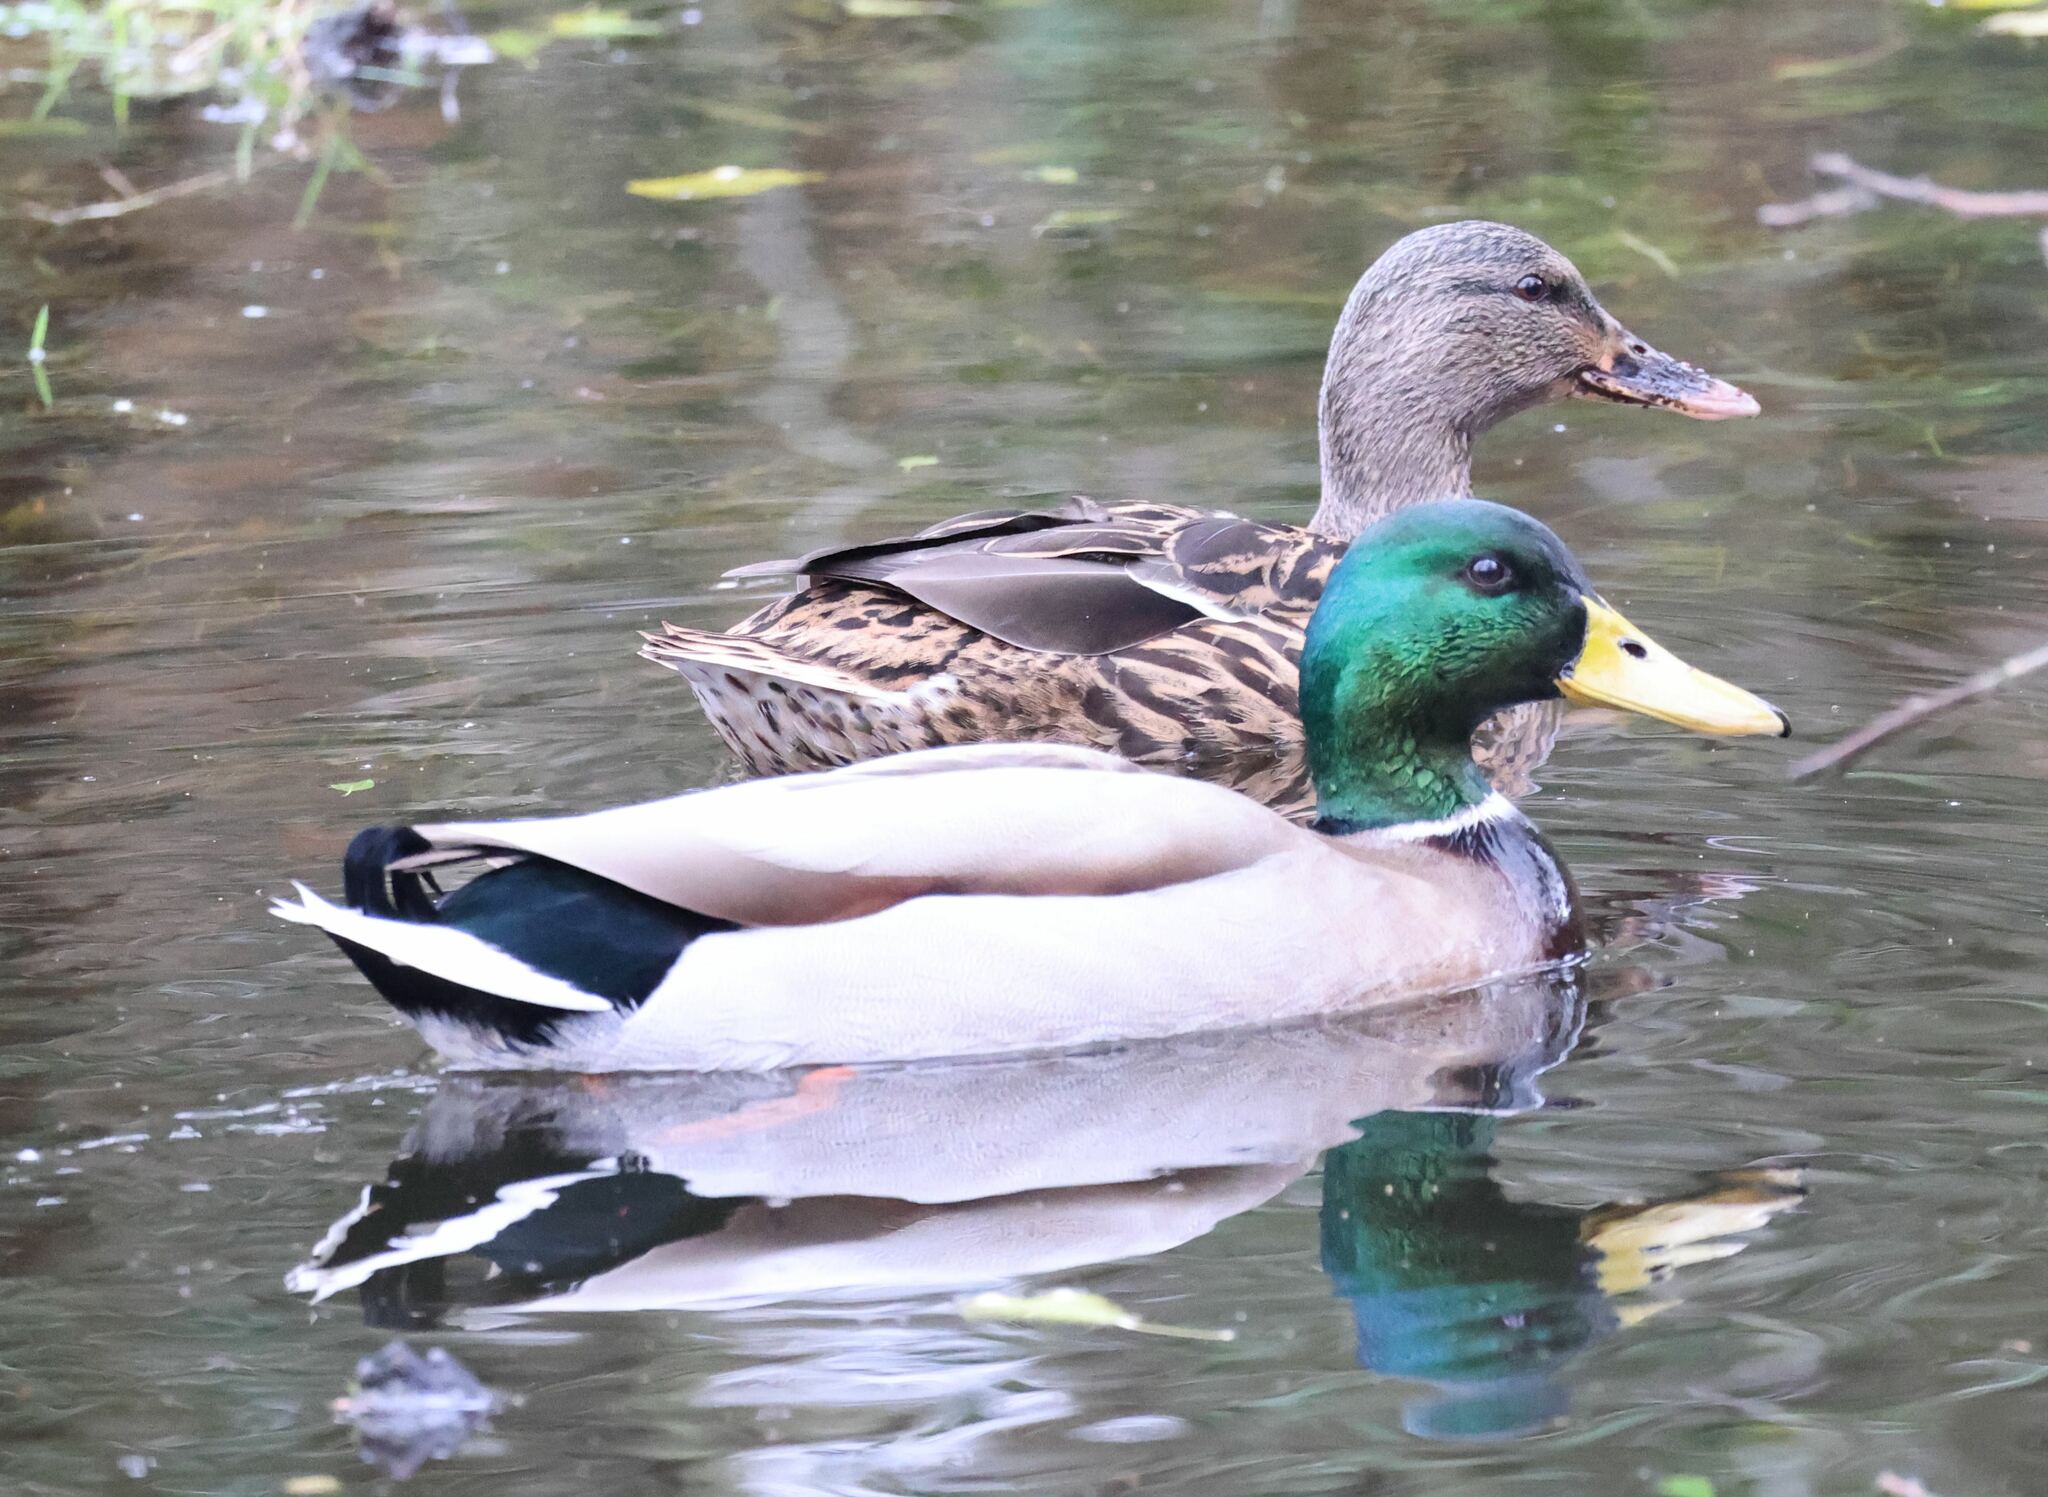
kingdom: Animalia
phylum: Chordata
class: Aves
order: Anseriformes
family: Anatidae
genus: Anas
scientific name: Anas platyrhynchos
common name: Mallard
